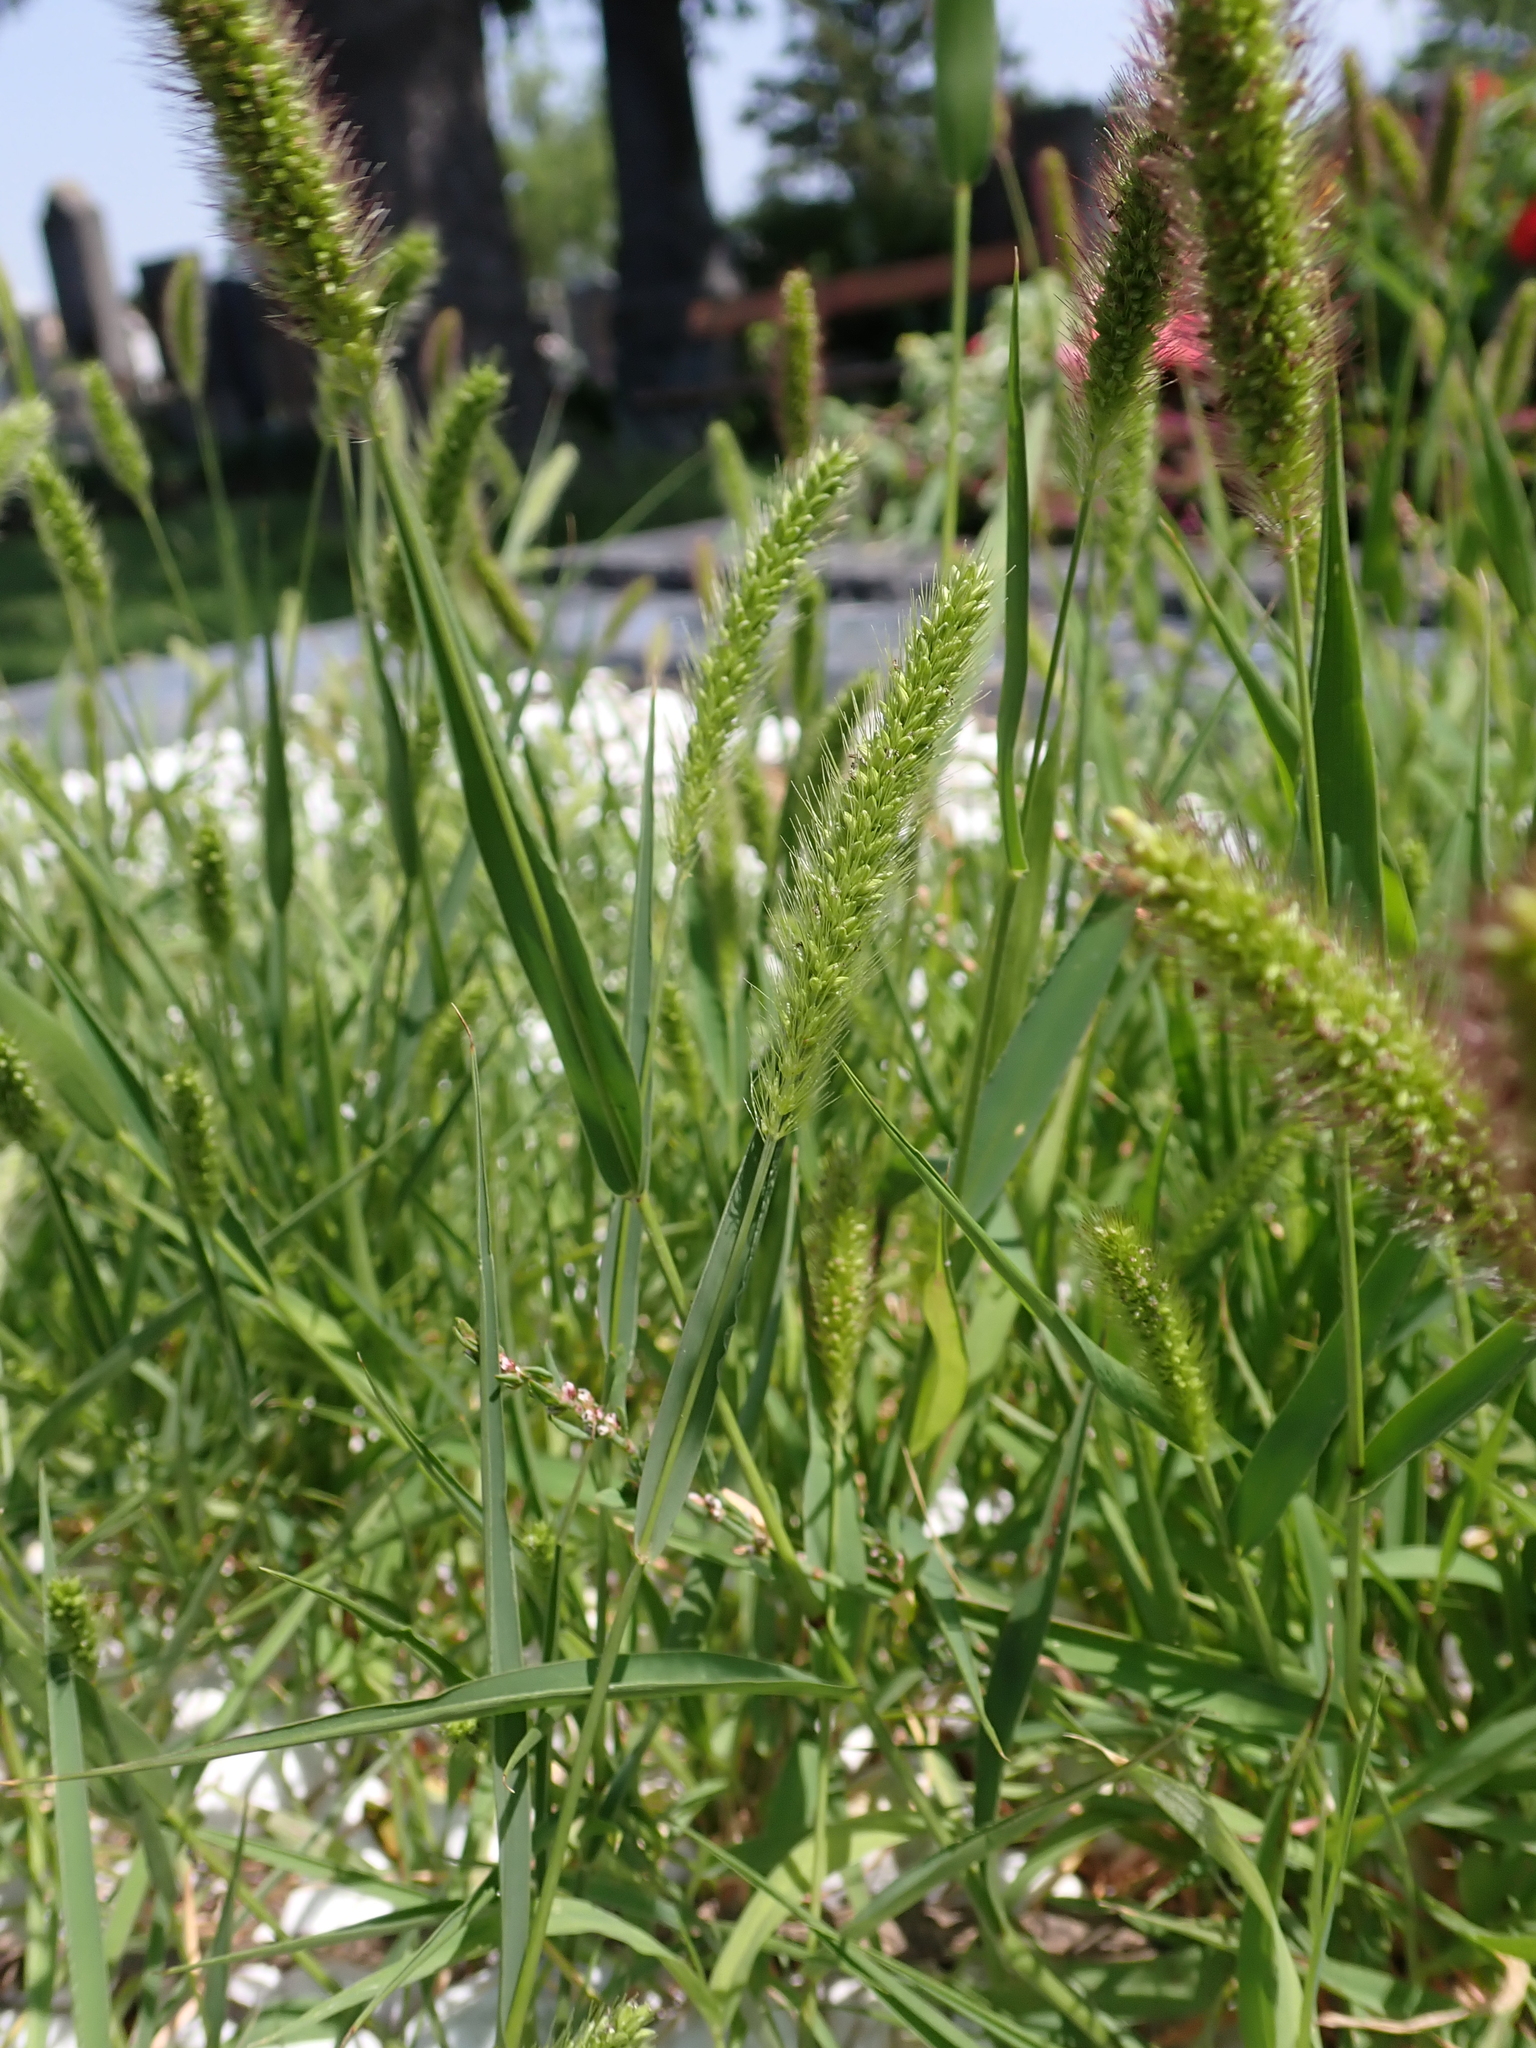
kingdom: Plantae
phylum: Tracheophyta
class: Liliopsida
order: Poales
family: Poaceae
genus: Setaria
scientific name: Setaria viridis
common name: Green bristlegrass
